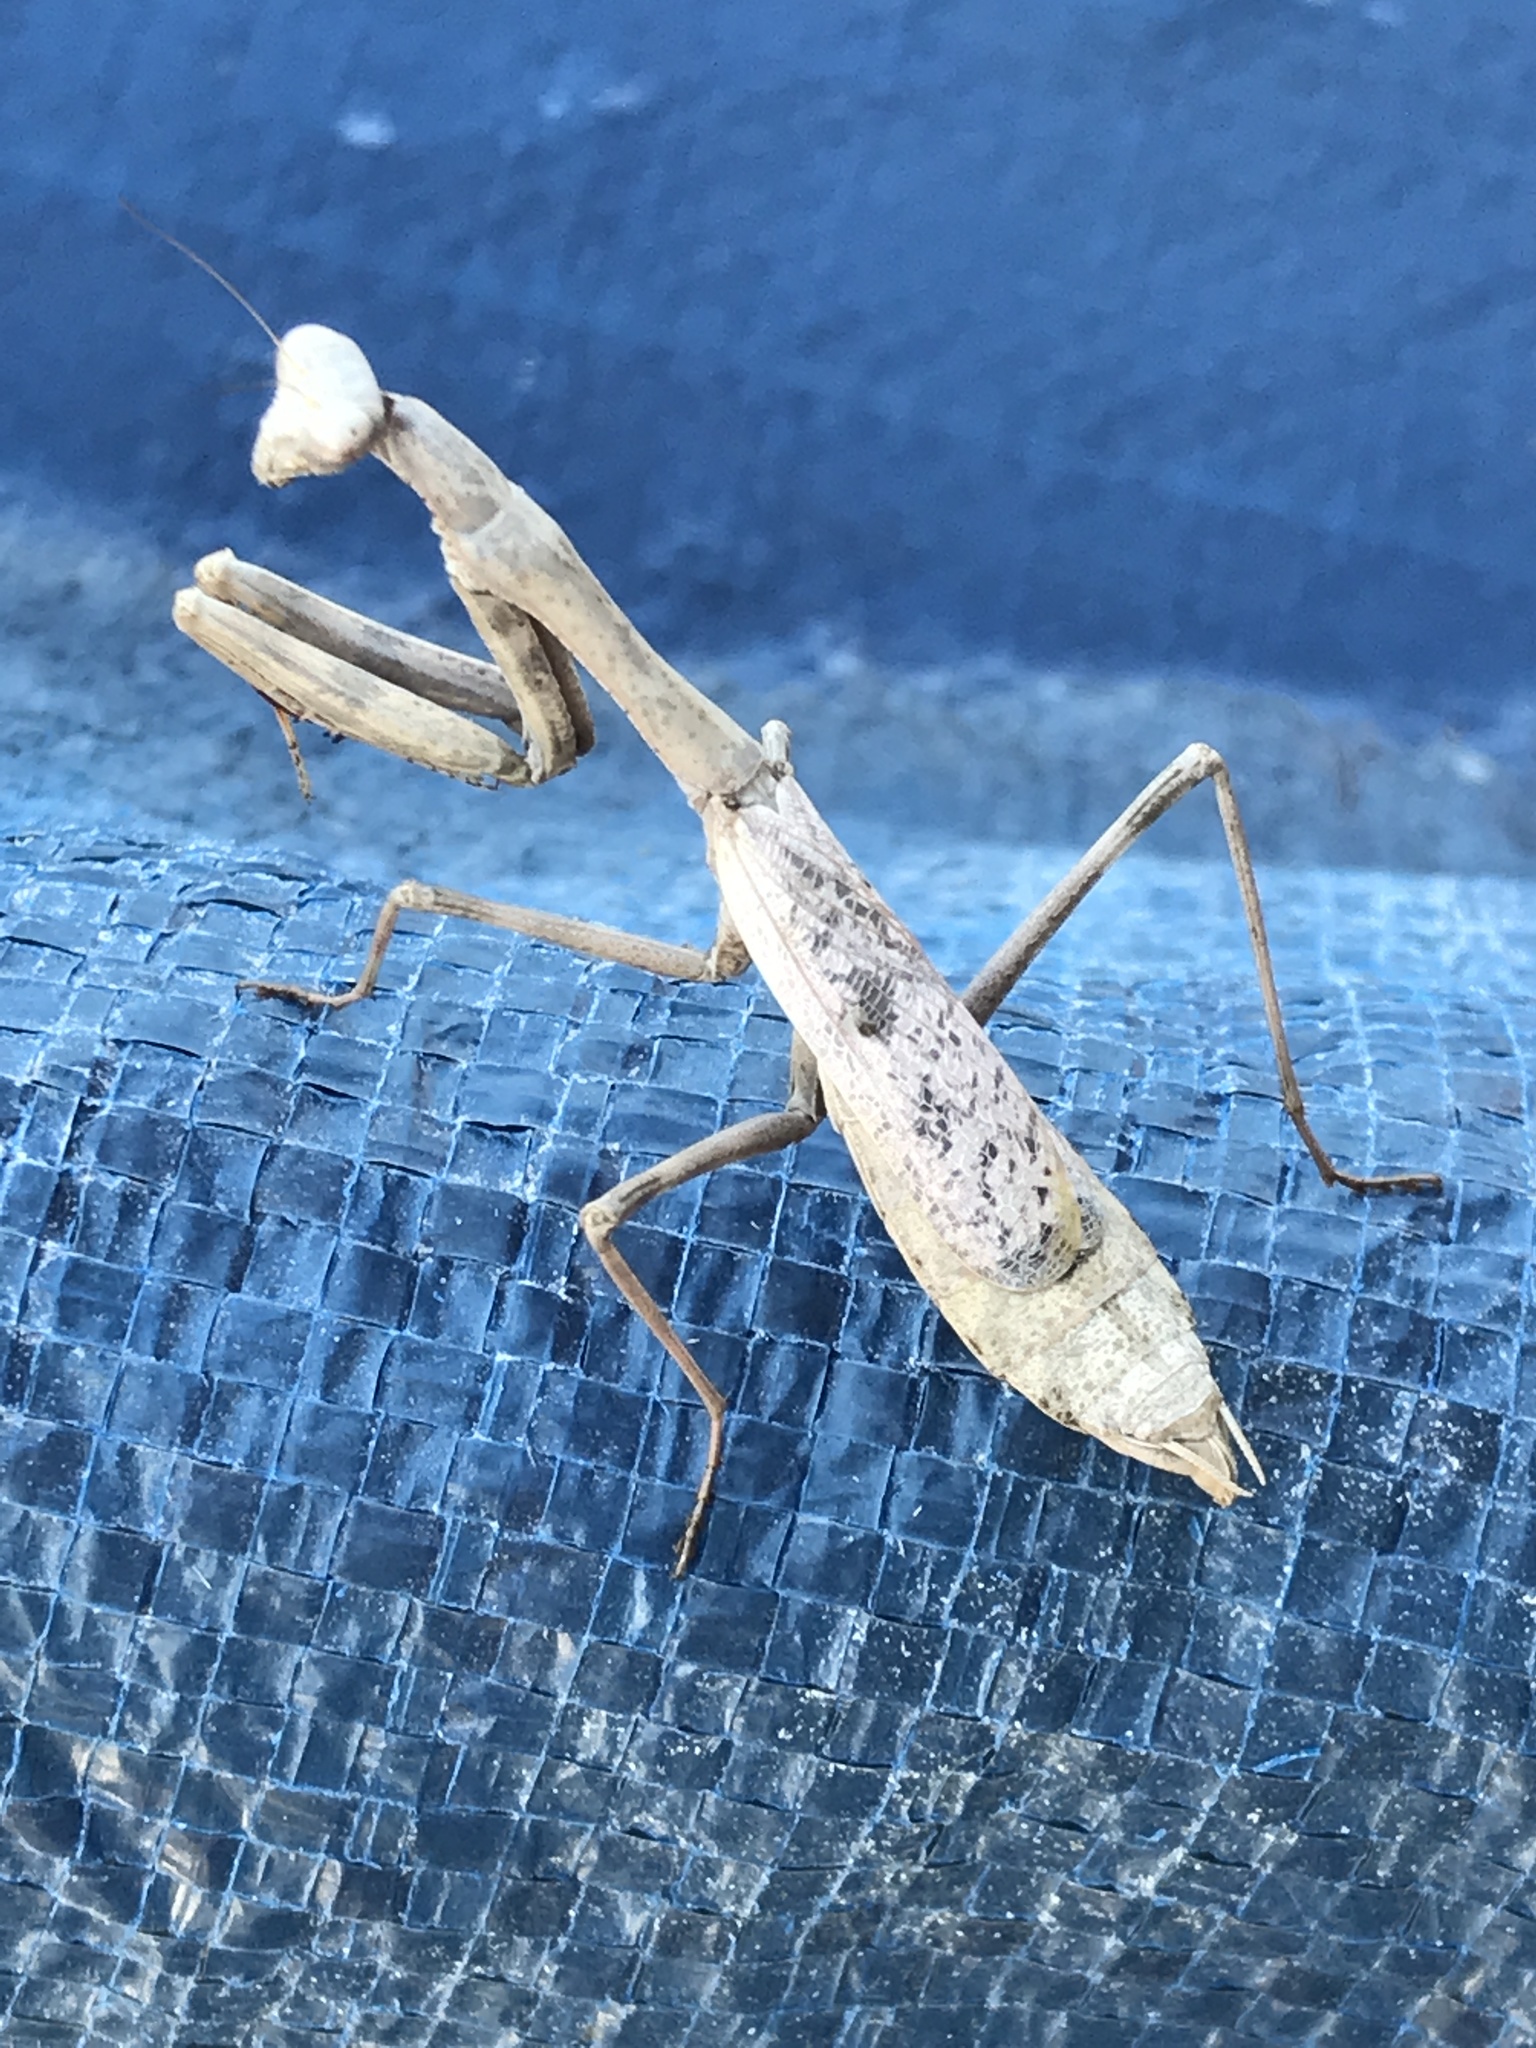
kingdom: Animalia
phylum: Arthropoda
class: Insecta
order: Mantodea
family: Mantidae
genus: Stagmomantis
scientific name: Stagmomantis carolina
